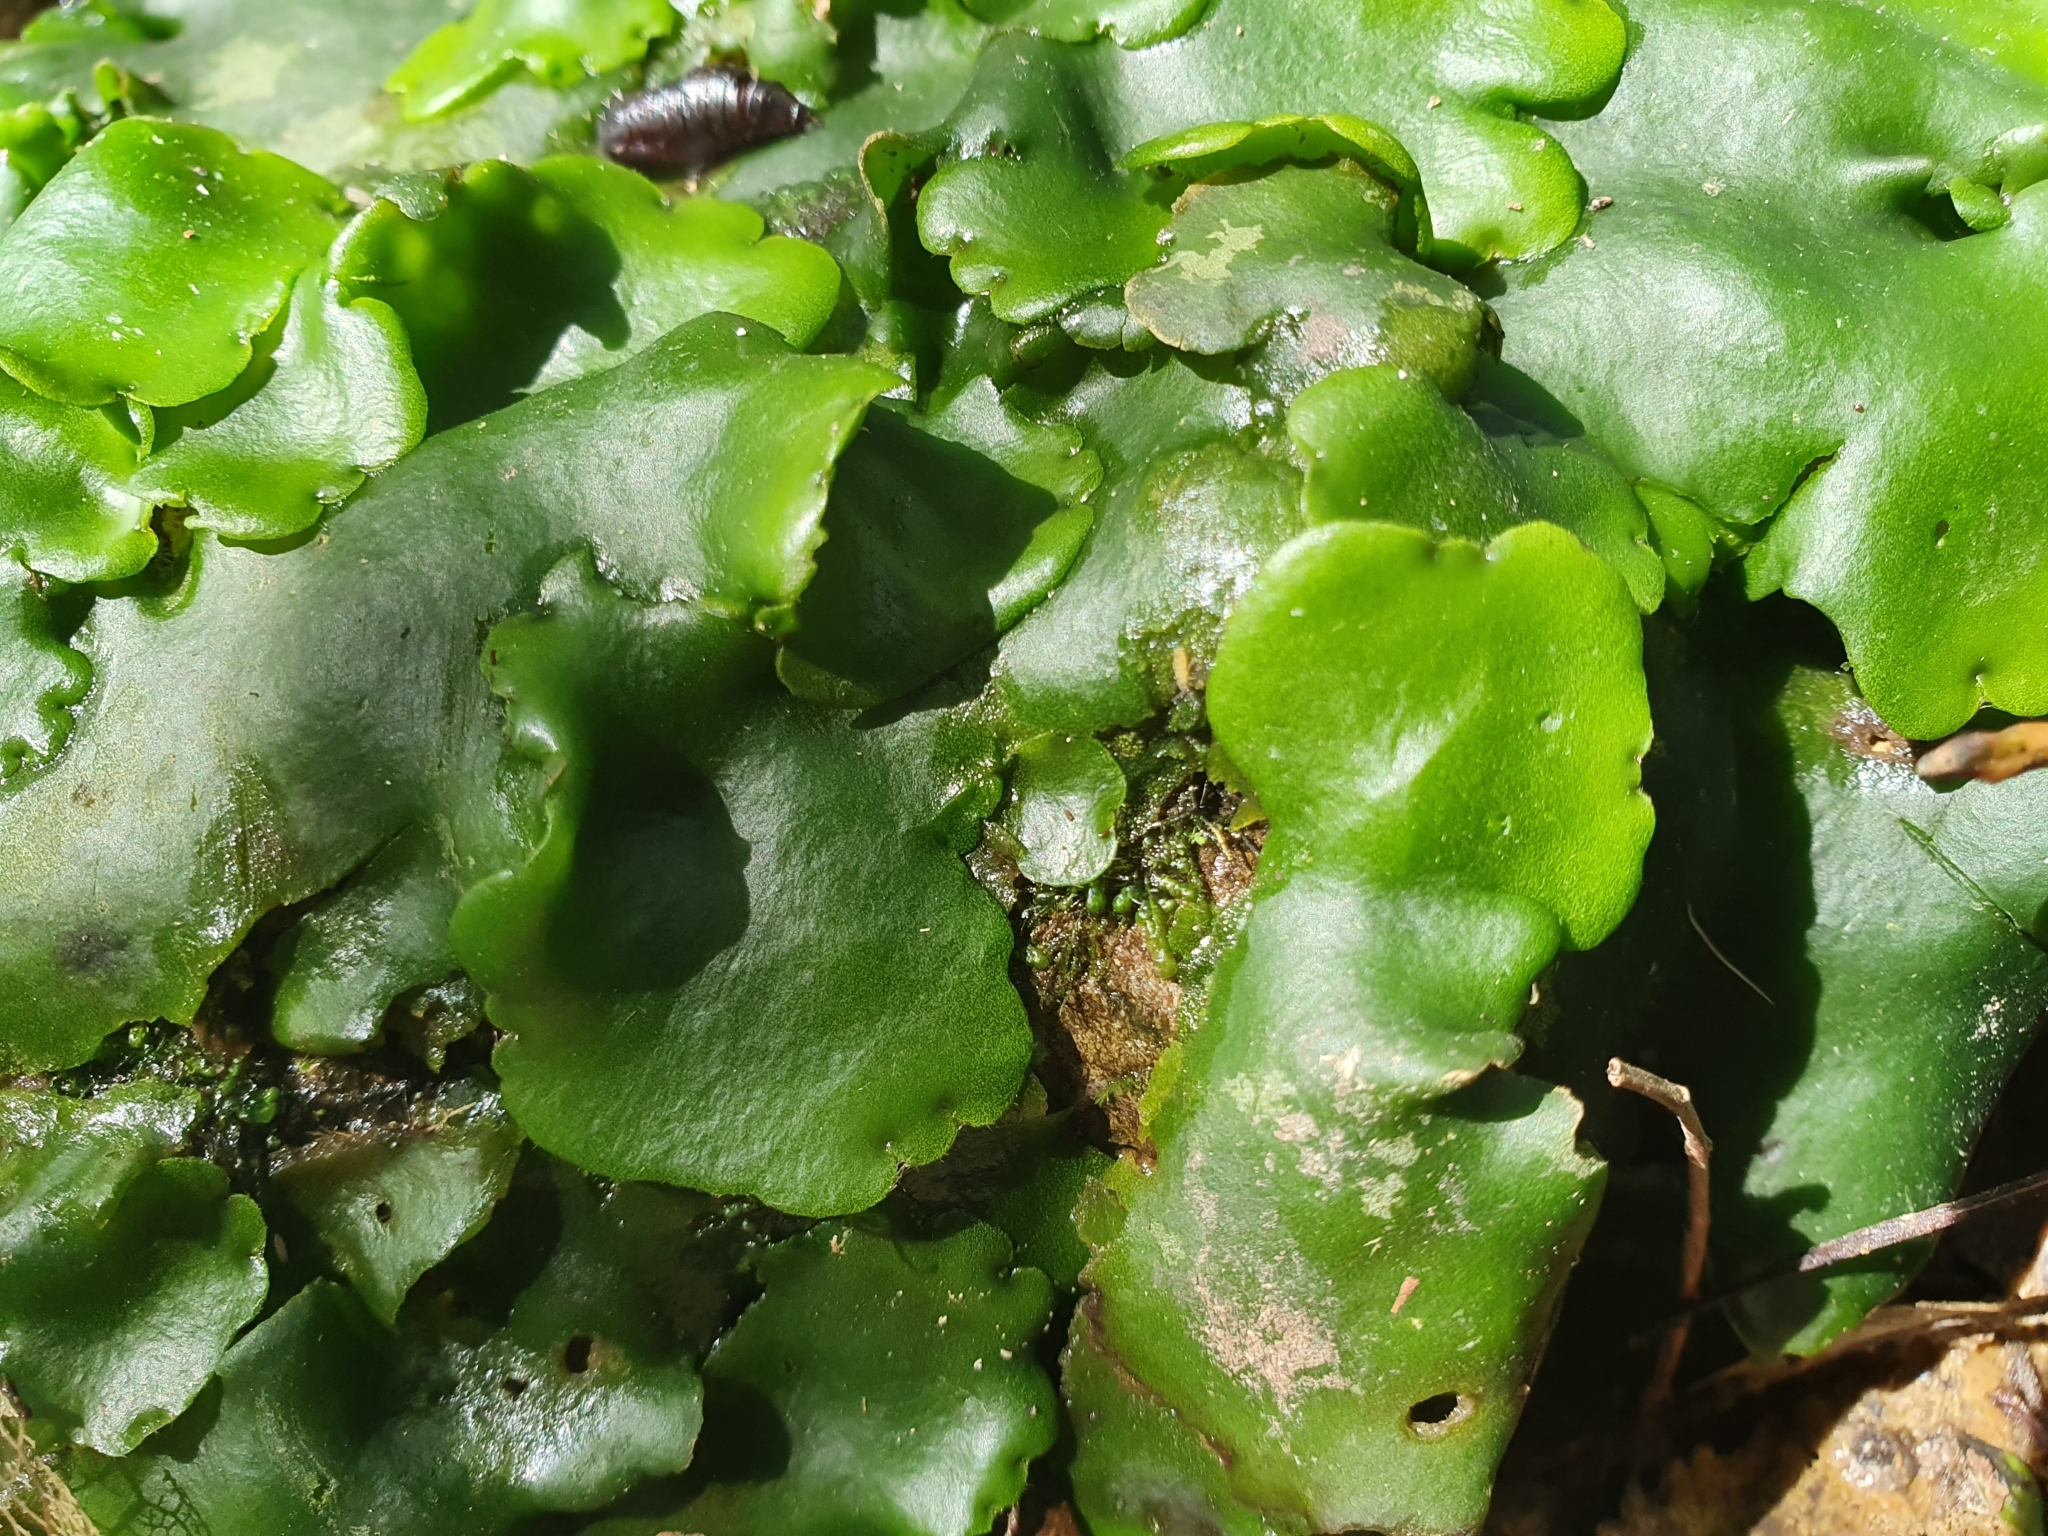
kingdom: Plantae
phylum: Marchantiophyta
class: Marchantiopsida
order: Marchantiales
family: Monocleaceae
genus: Monoclea
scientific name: Monoclea forsteri
